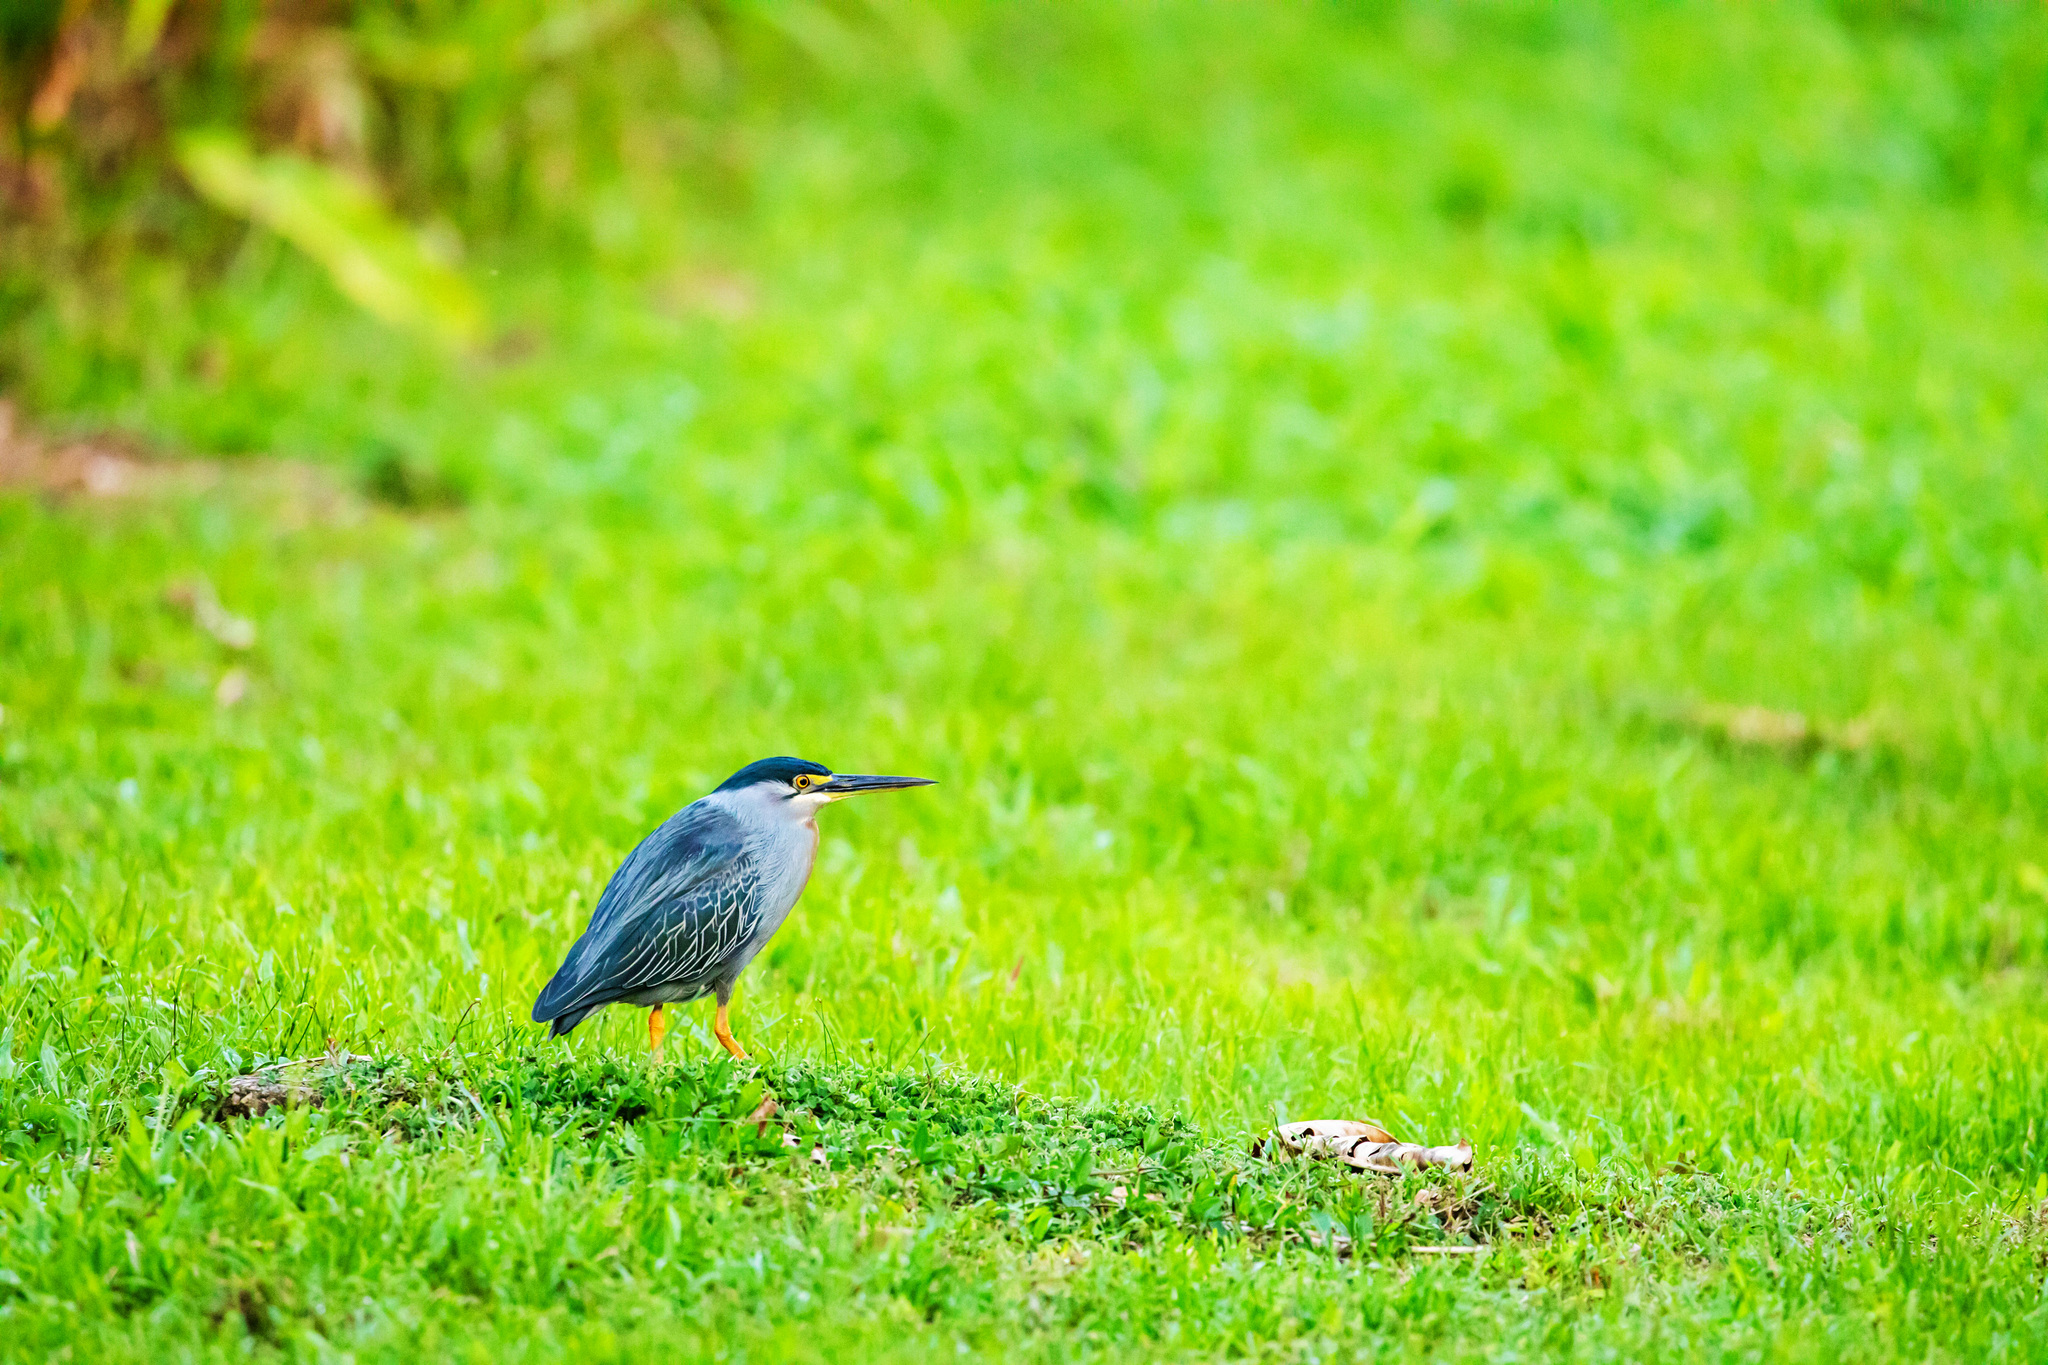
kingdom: Animalia
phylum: Chordata
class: Aves
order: Pelecaniformes
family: Ardeidae
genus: Butorides
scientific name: Butorides striata
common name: Striated heron
